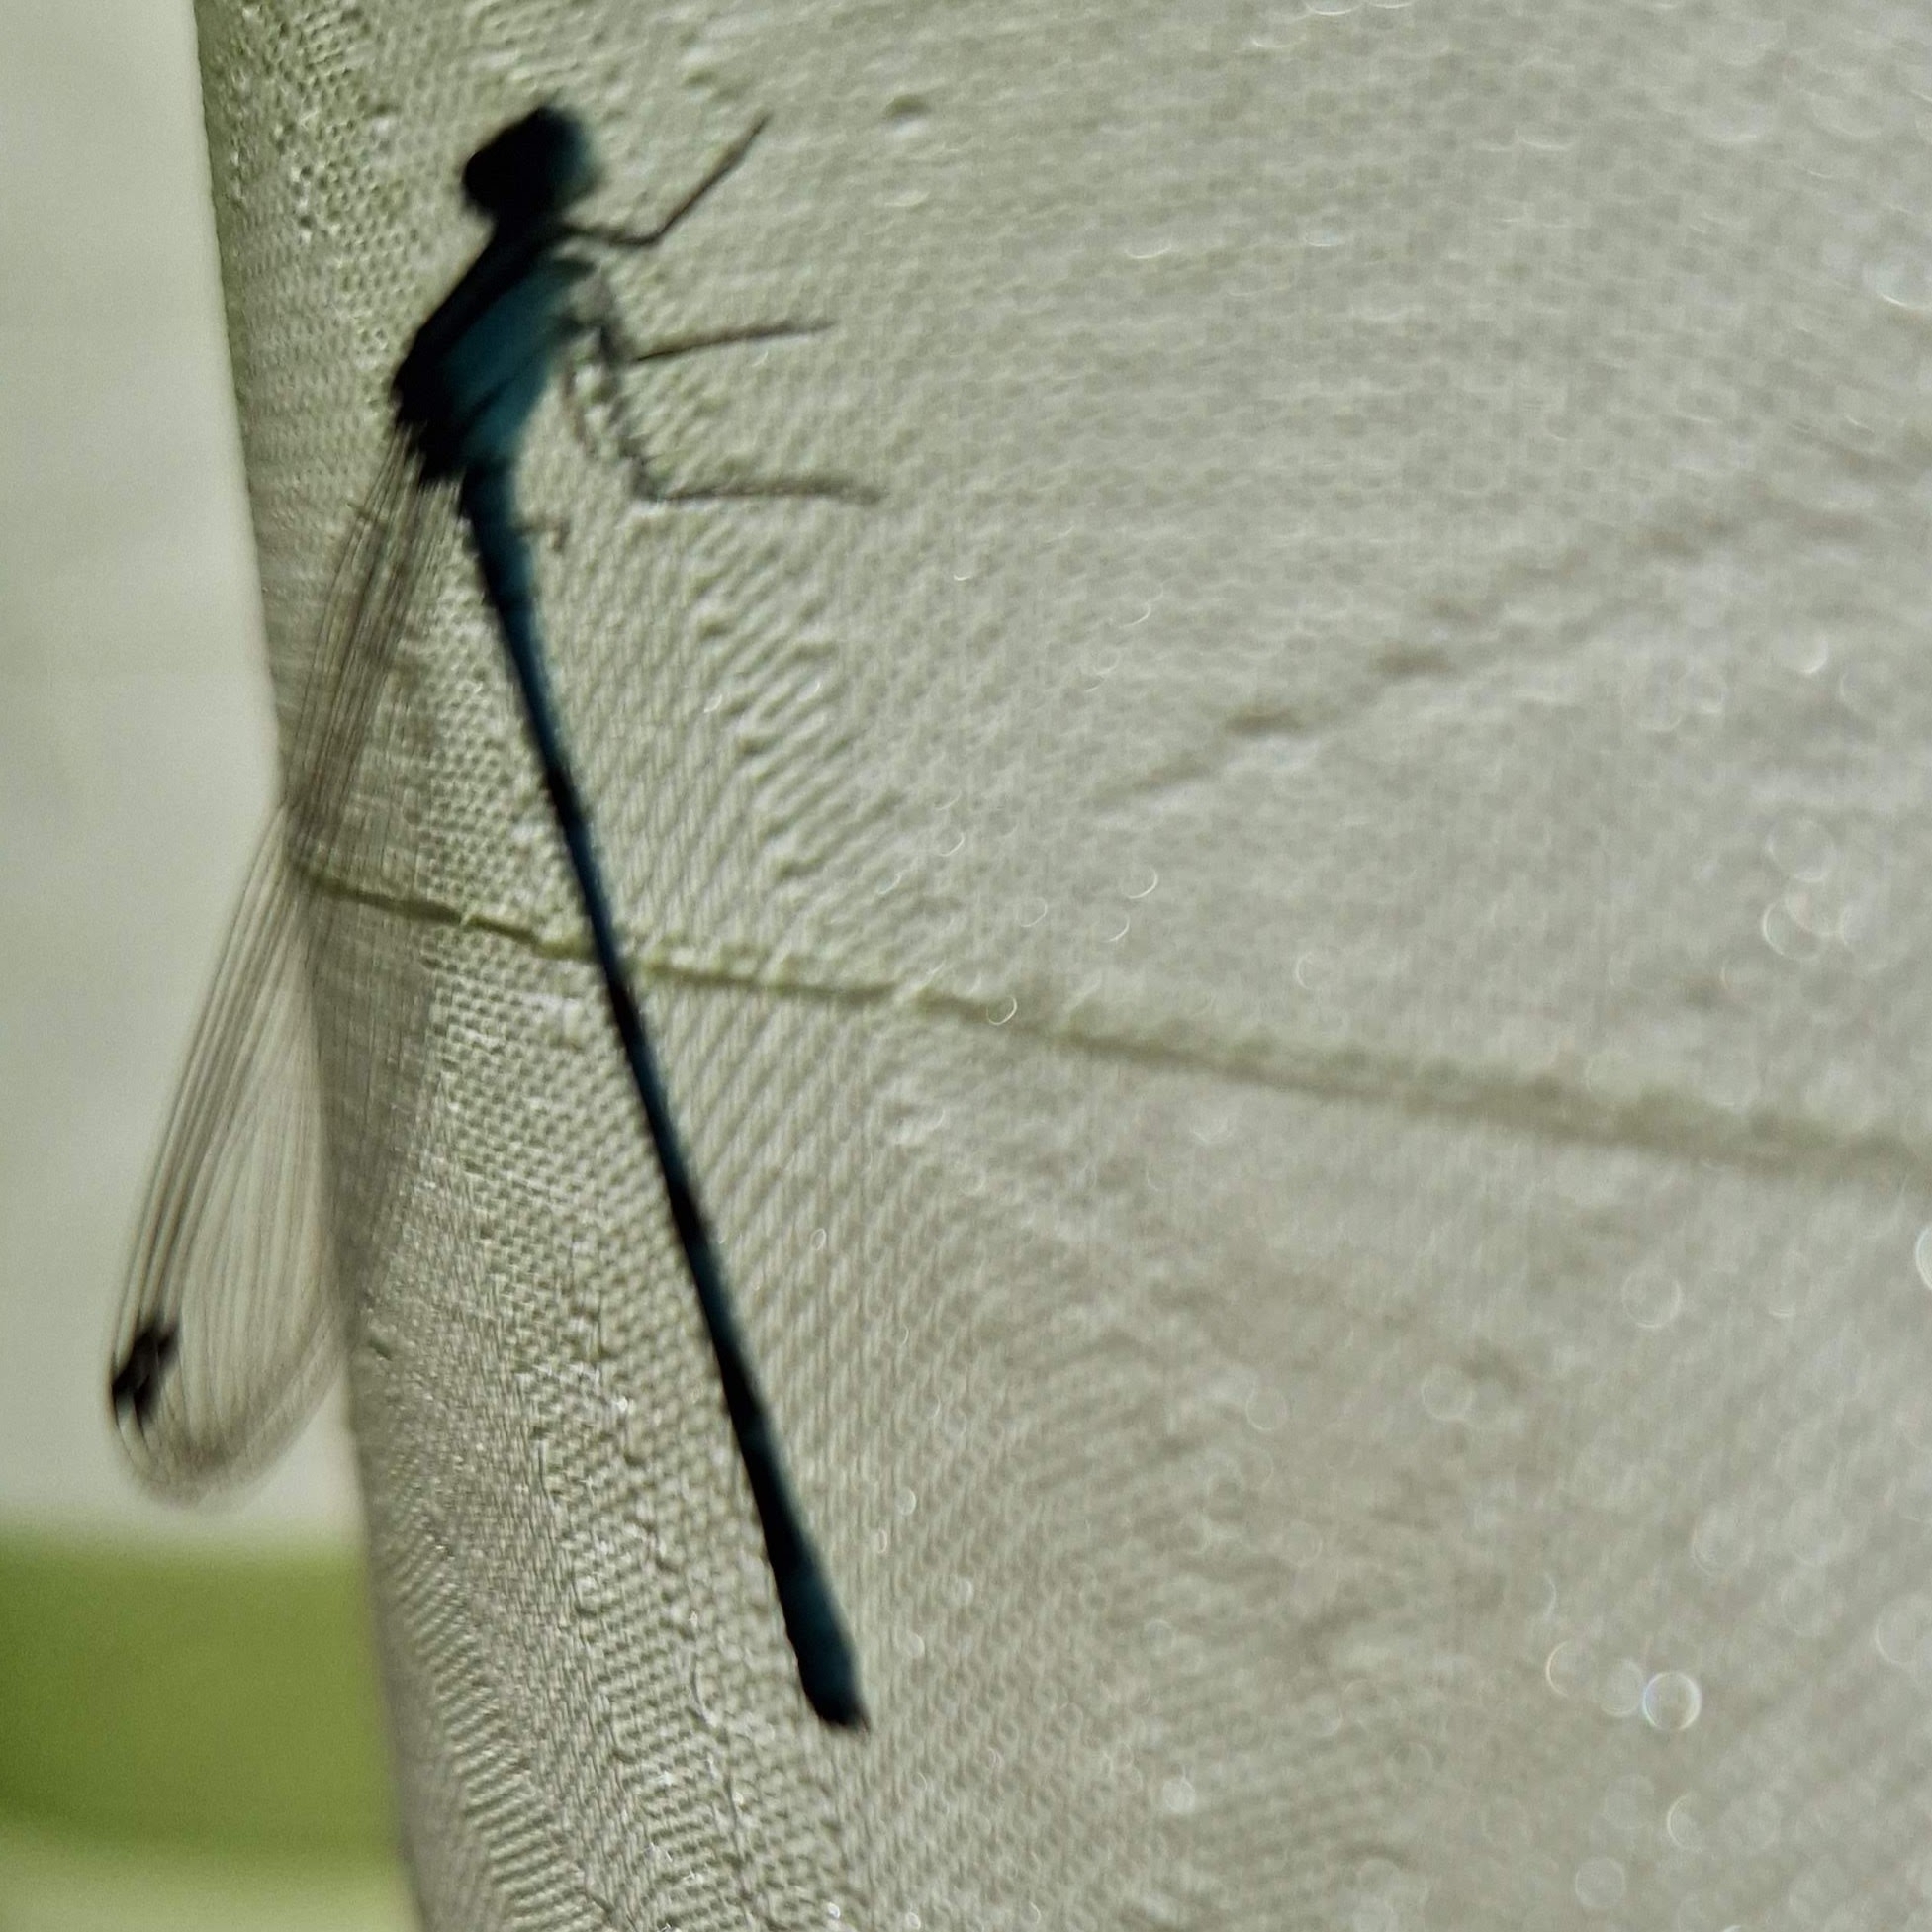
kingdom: Animalia
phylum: Arthropoda
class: Insecta
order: Odonata
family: Coenagrionidae
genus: Enallagma
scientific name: Enallagma cyathigerum
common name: Common blue damselfly
